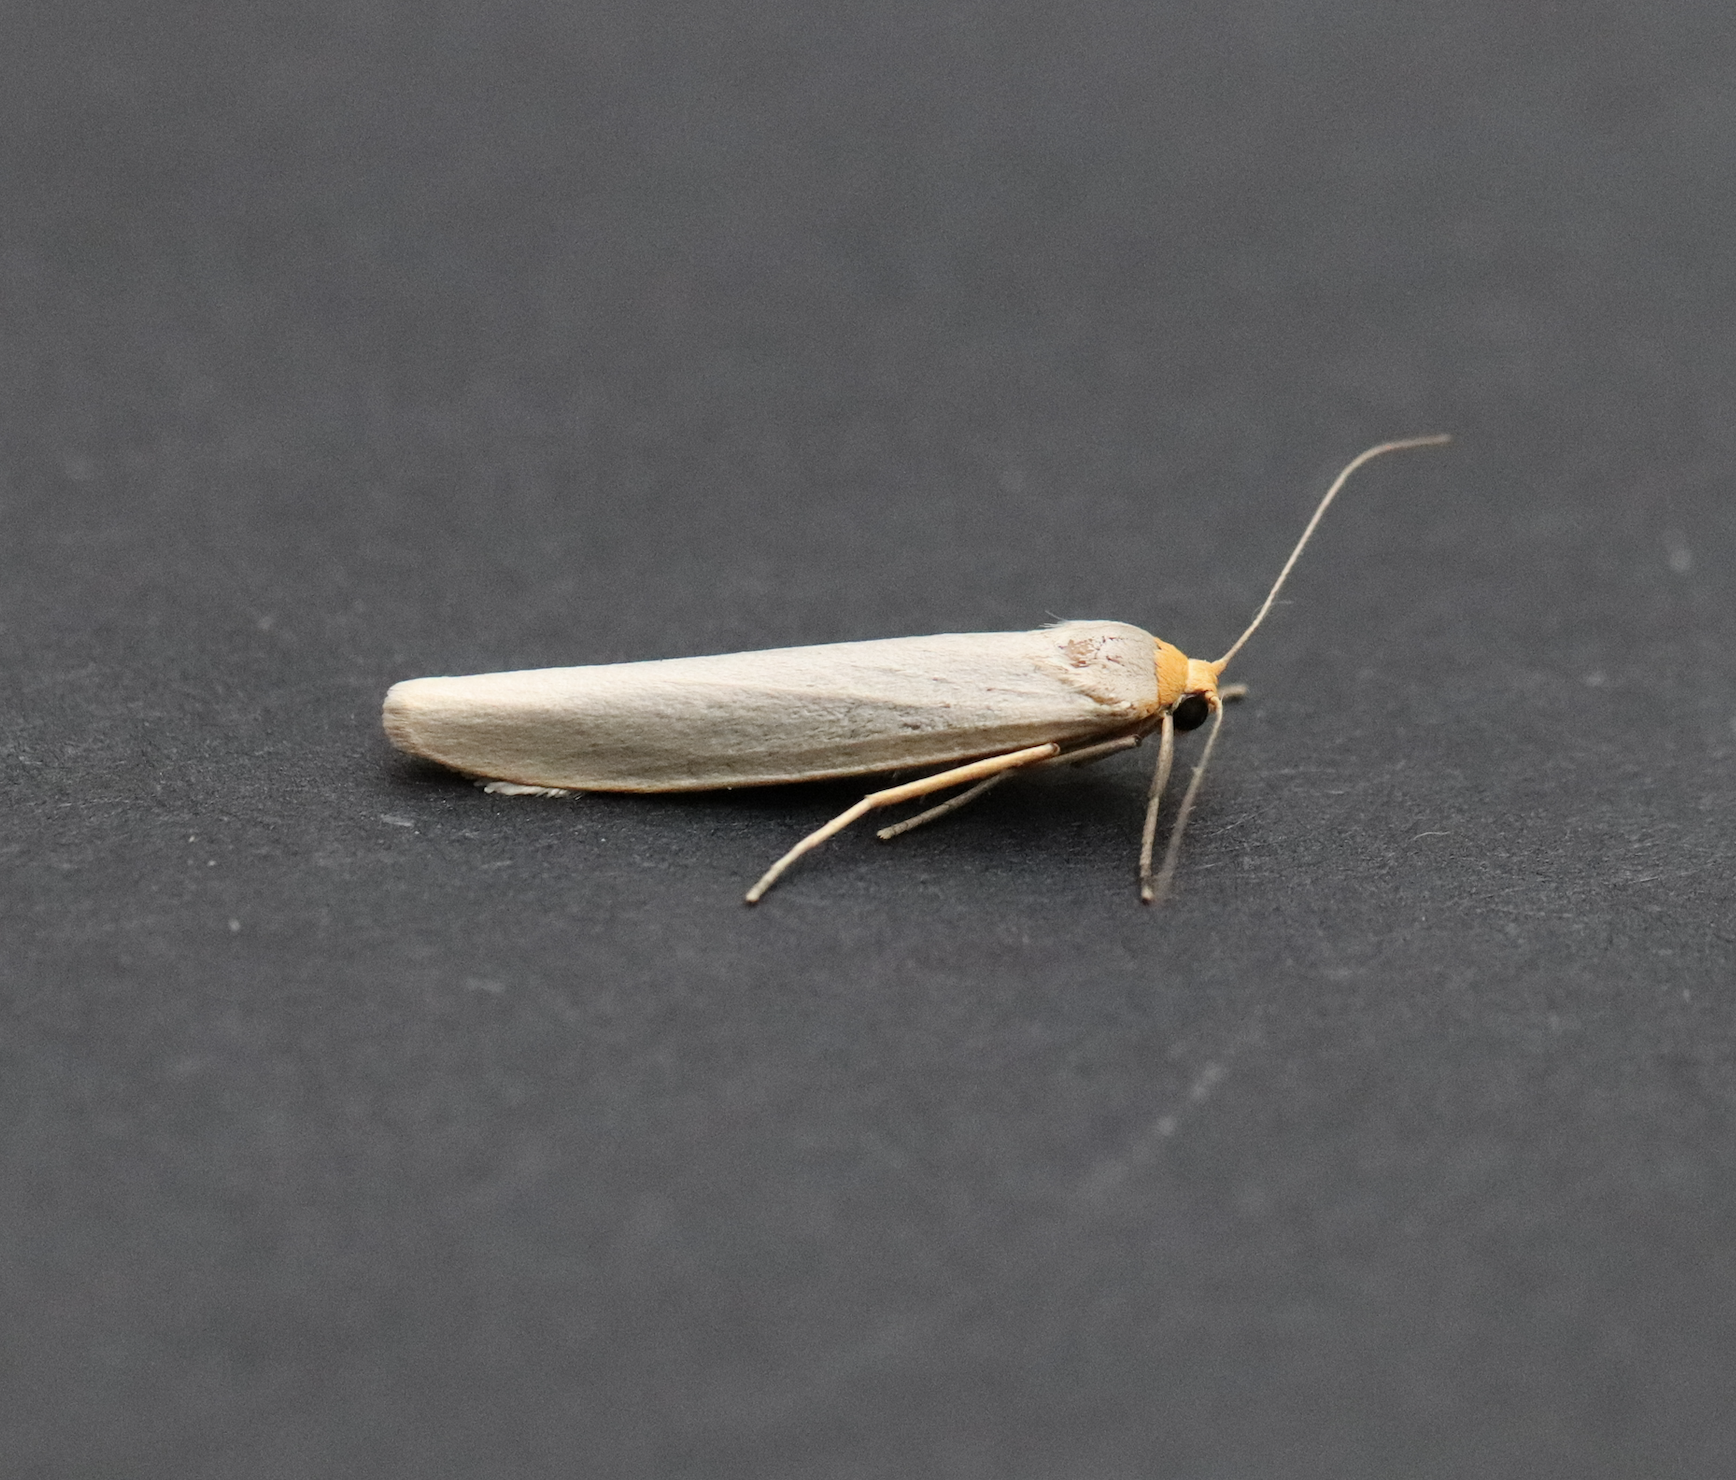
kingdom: Animalia
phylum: Arthropoda
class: Insecta
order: Lepidoptera
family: Erebidae
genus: Eilema
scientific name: Eilema caniola
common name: Hoary footman
